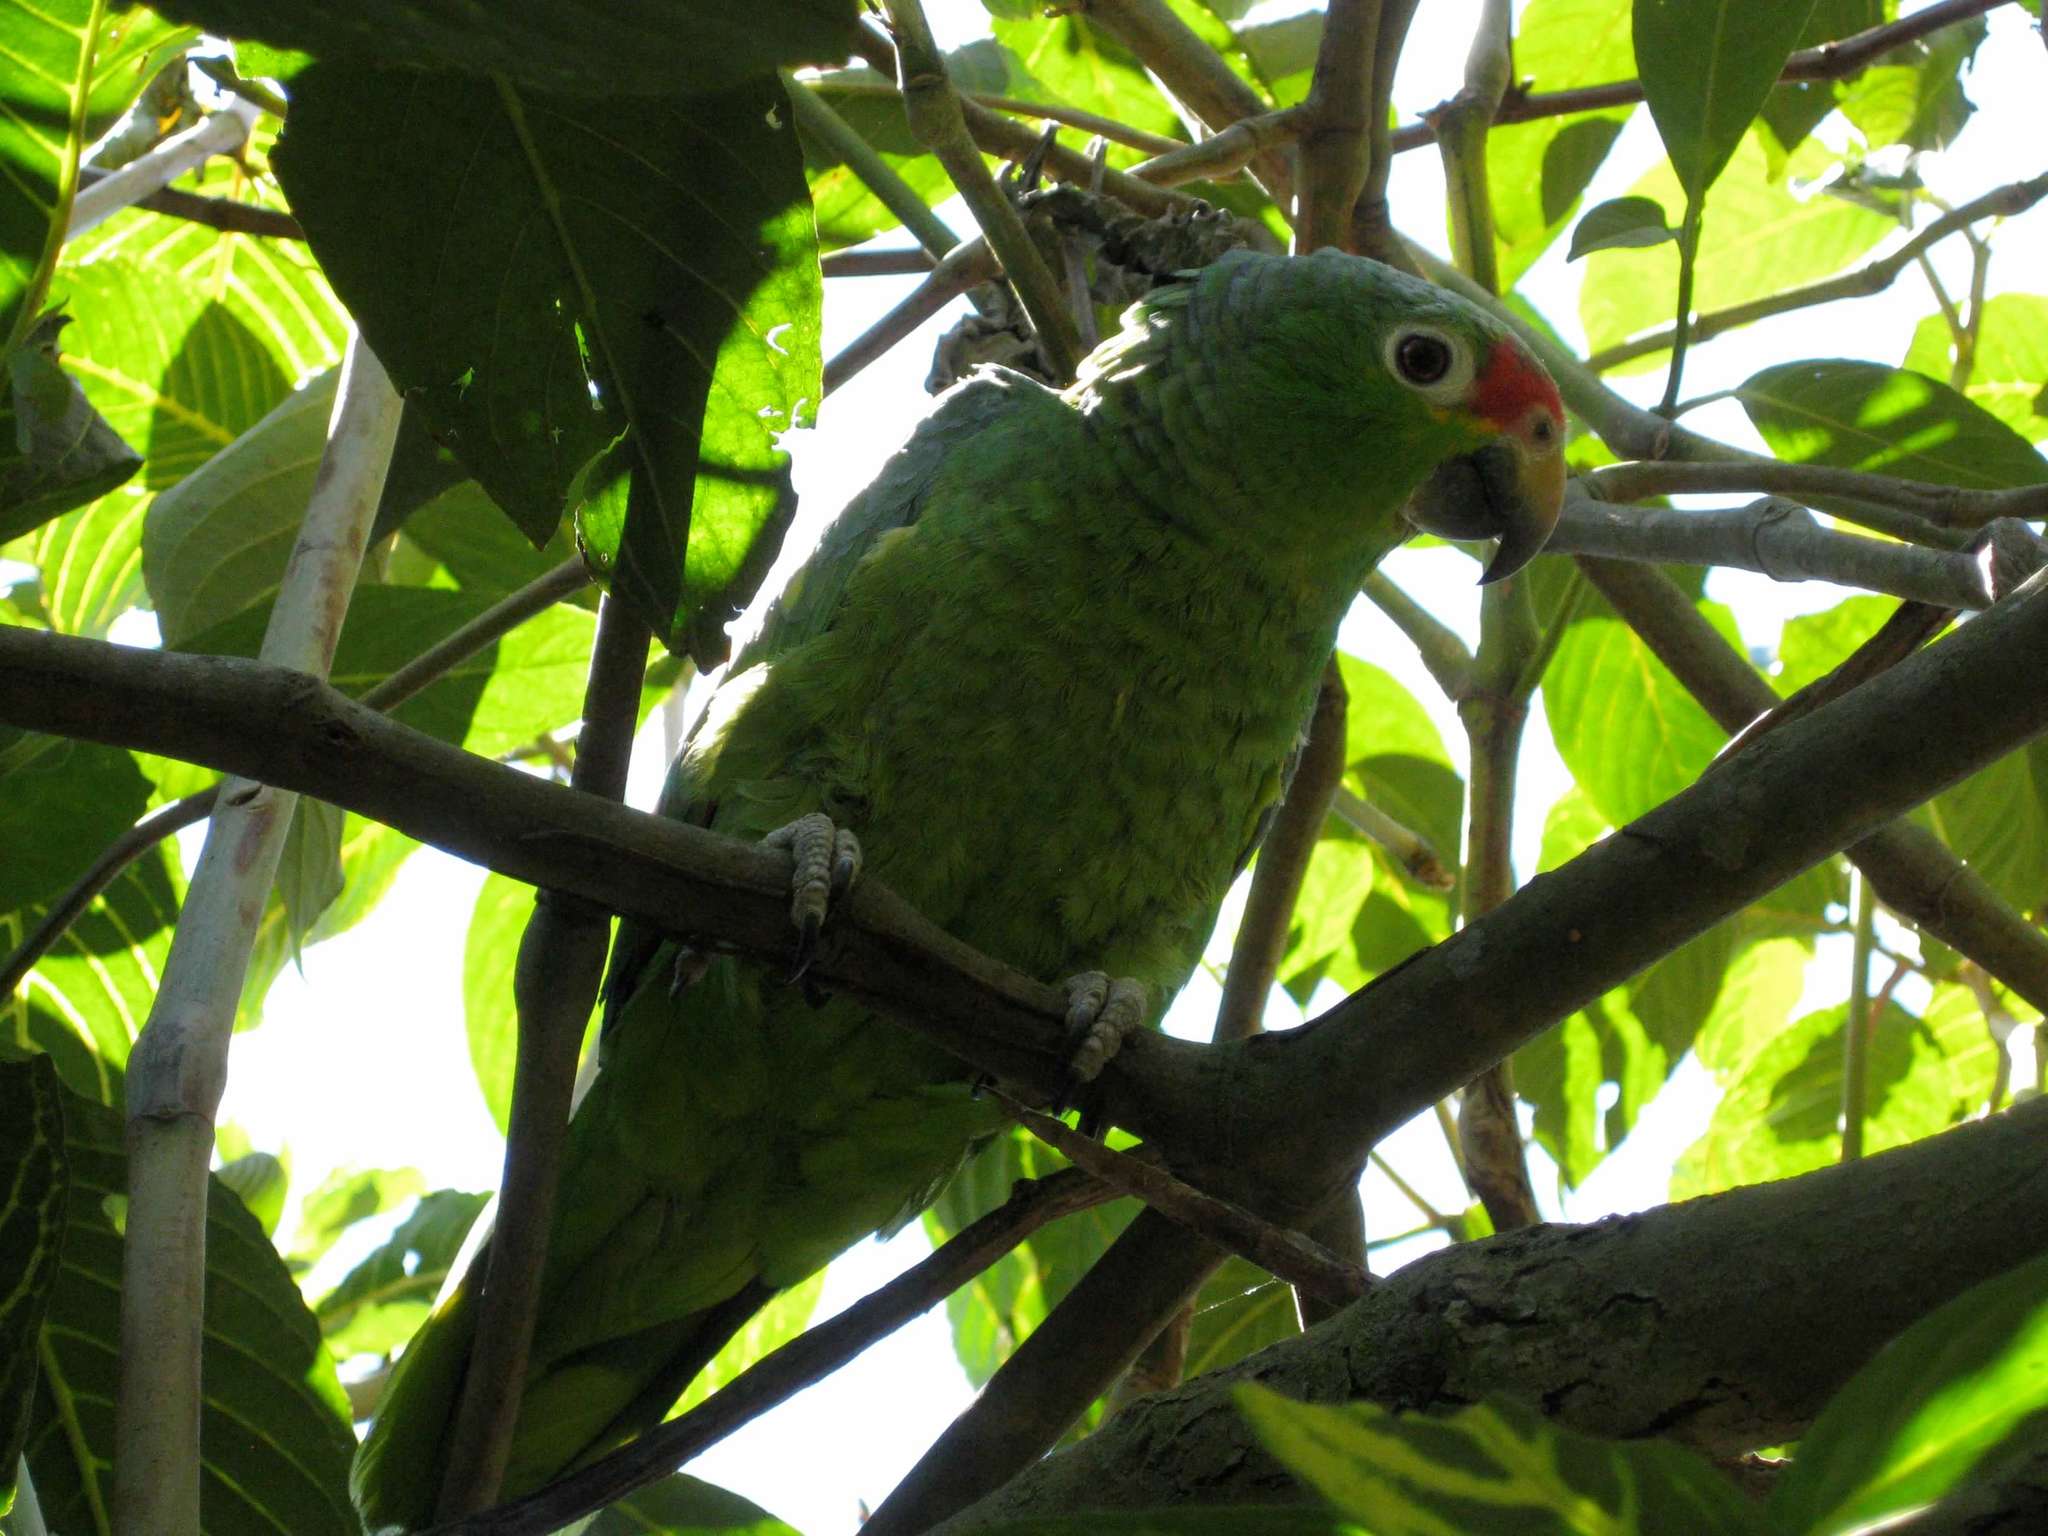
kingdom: Animalia
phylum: Chordata
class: Aves
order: Psittaciformes
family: Psittacidae
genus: Amazona
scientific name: Amazona autumnalis
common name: Red-lored amazon
